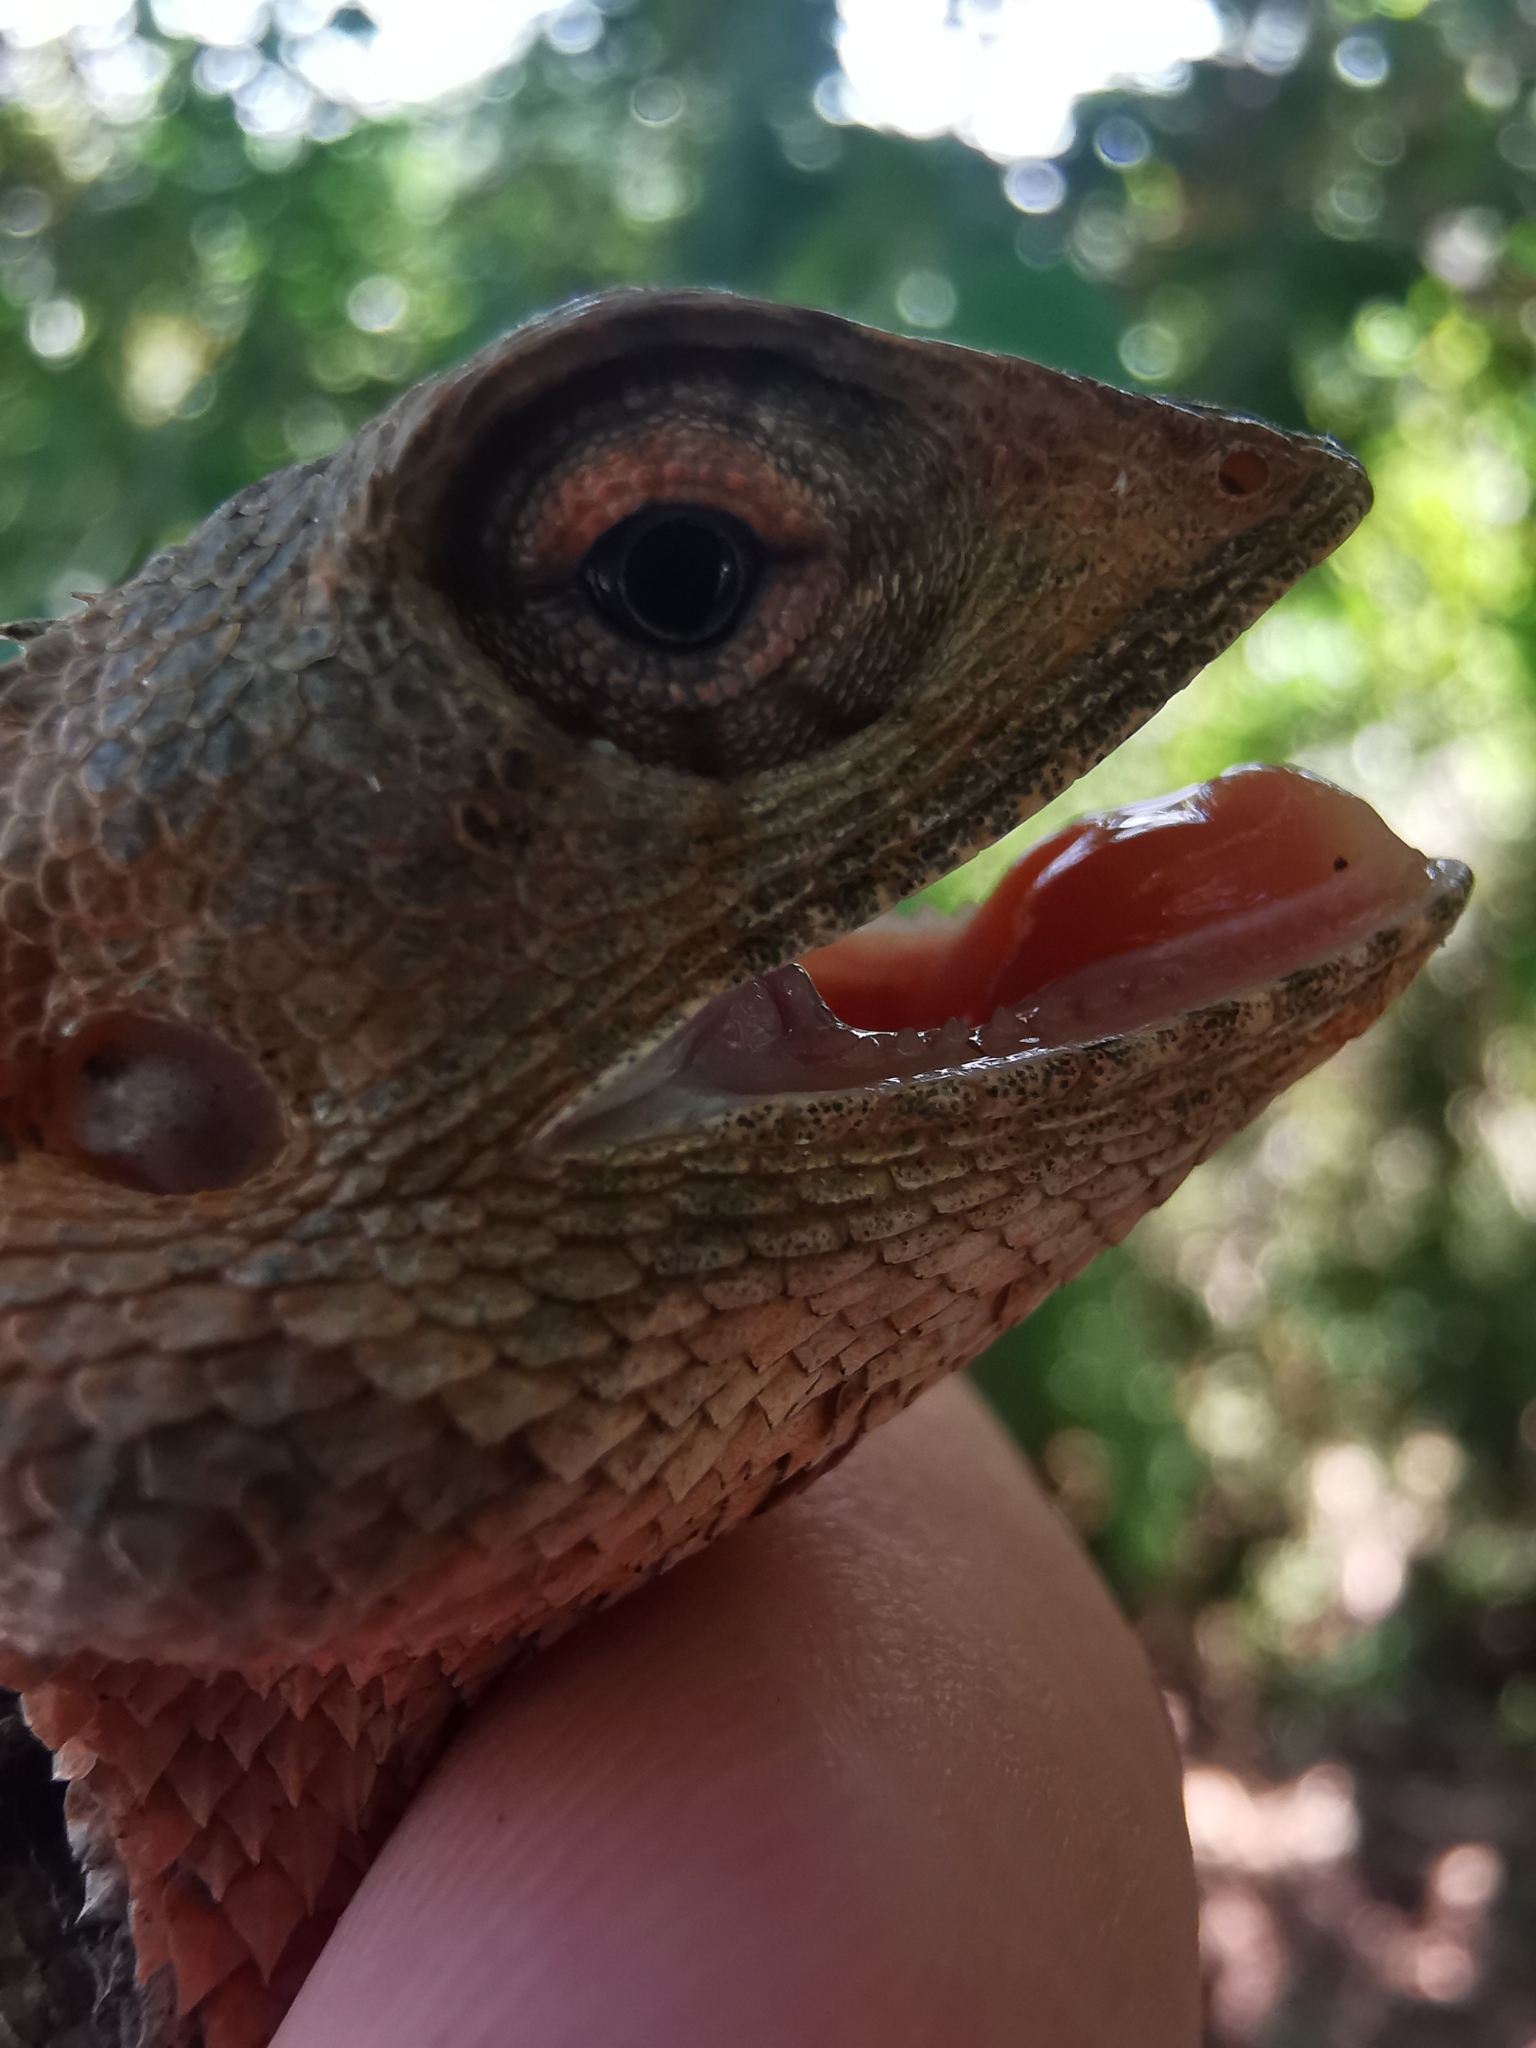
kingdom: Animalia
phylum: Chordata
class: Squamata
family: Agamidae
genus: Calotes
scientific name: Calotes versicolor
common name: Oriental garden lizard
